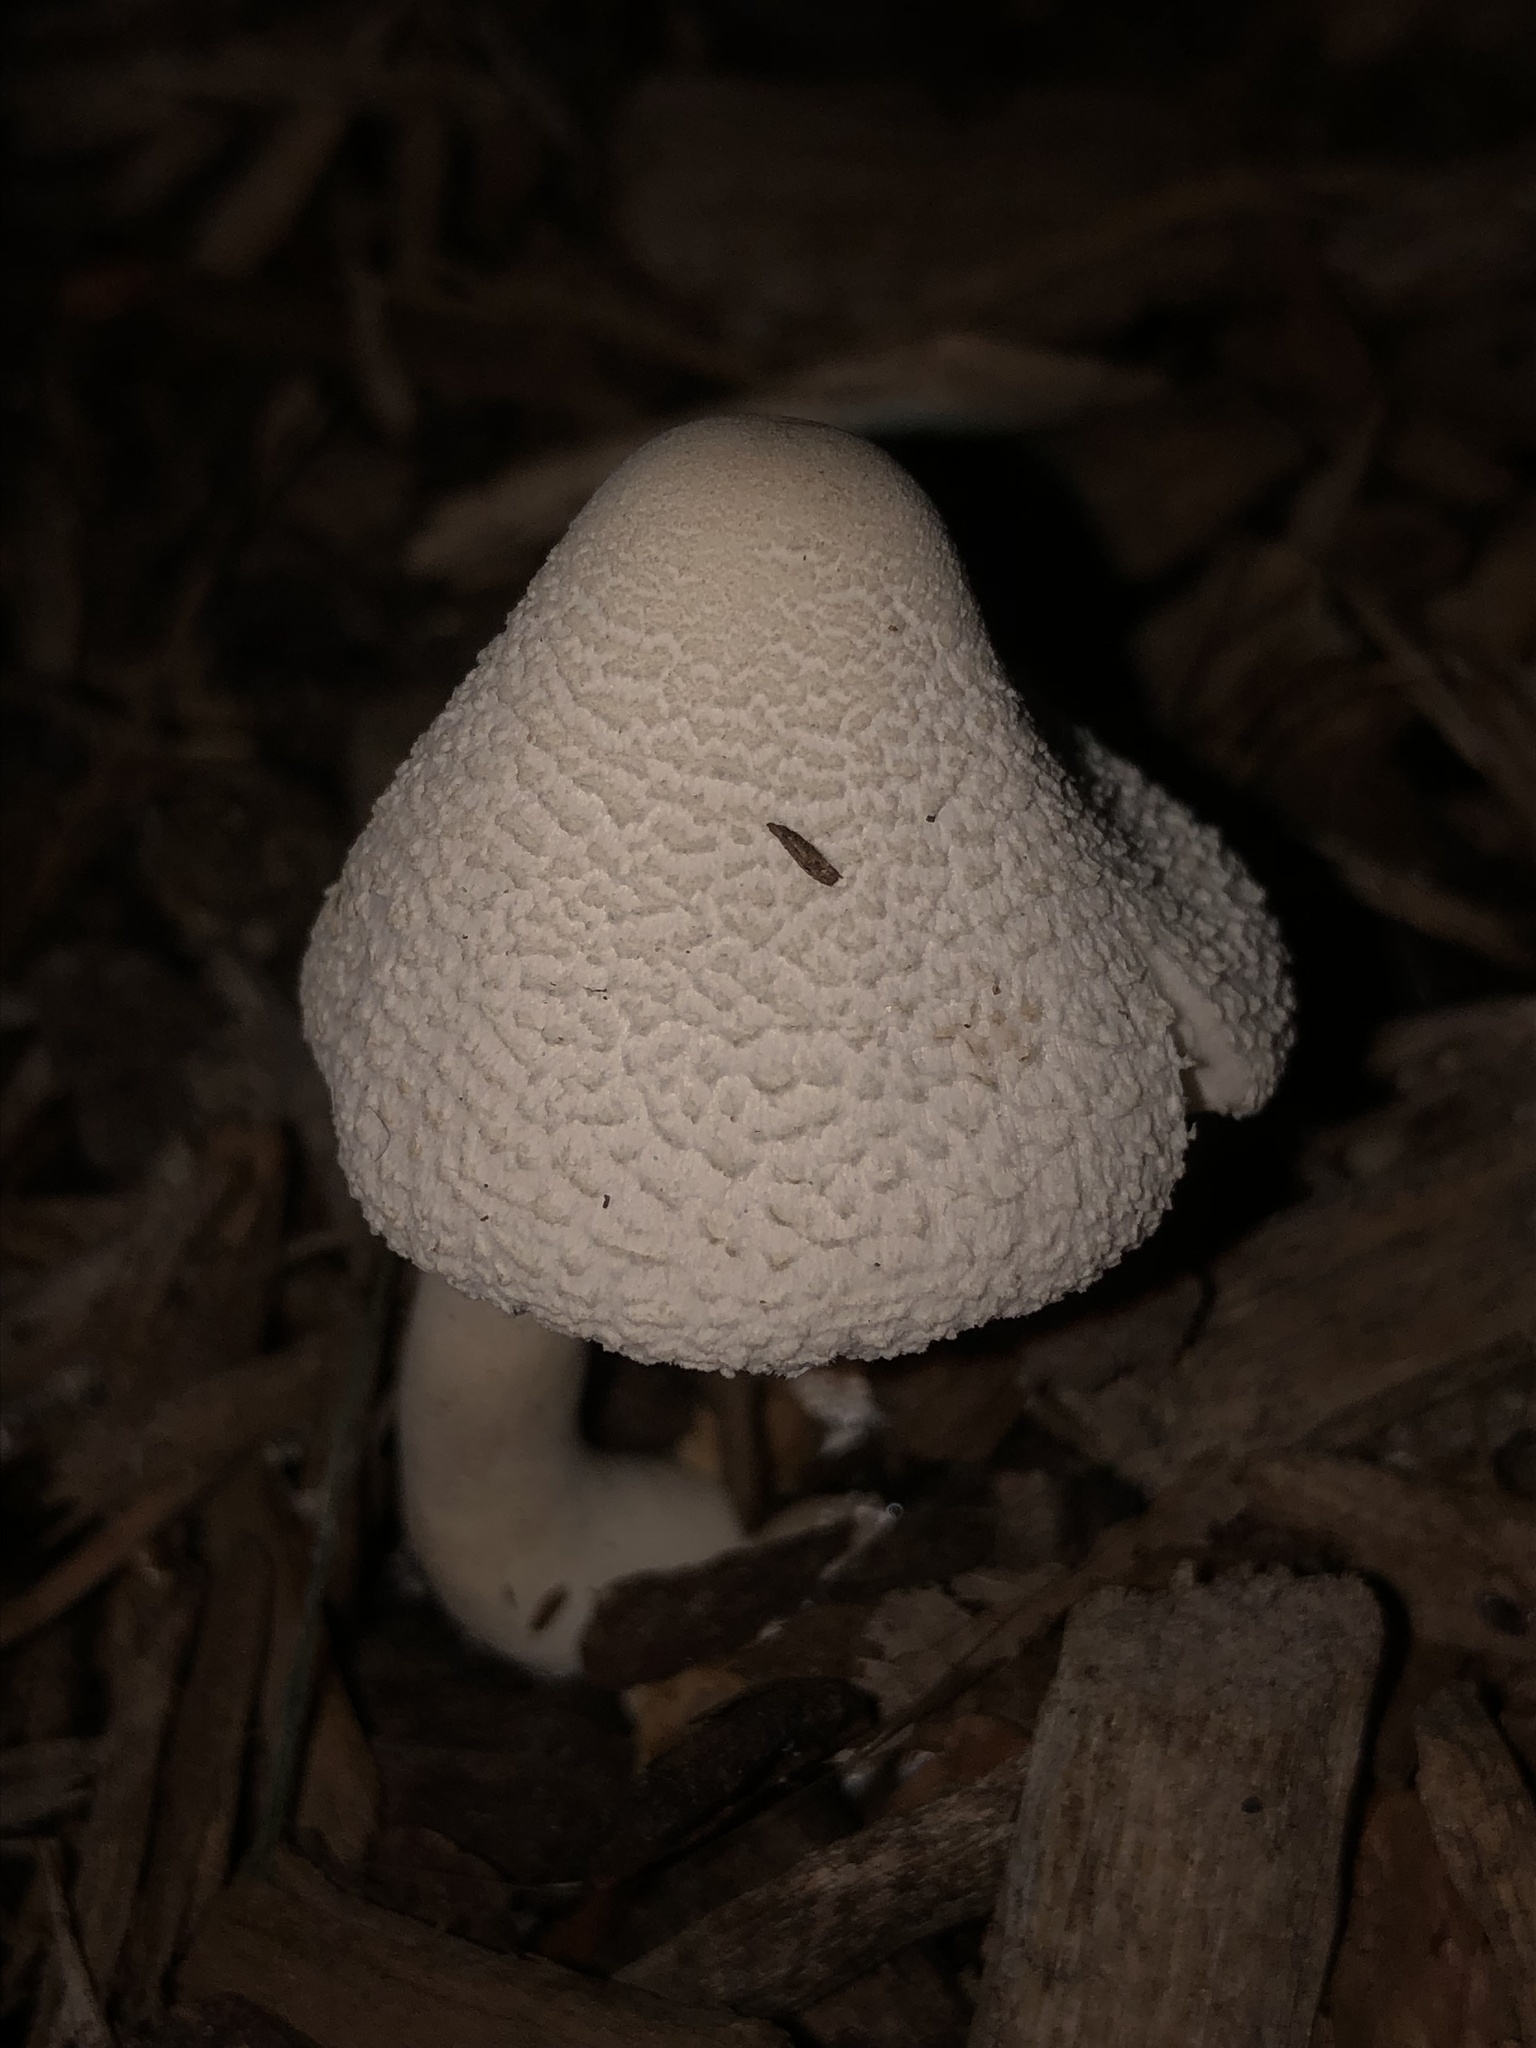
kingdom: Fungi
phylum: Basidiomycota
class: Agaricomycetes
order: Agaricales
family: Agaricaceae
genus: Leucocoprinus
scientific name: Leucocoprinus cepistipes
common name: Onion-stalk parasol
